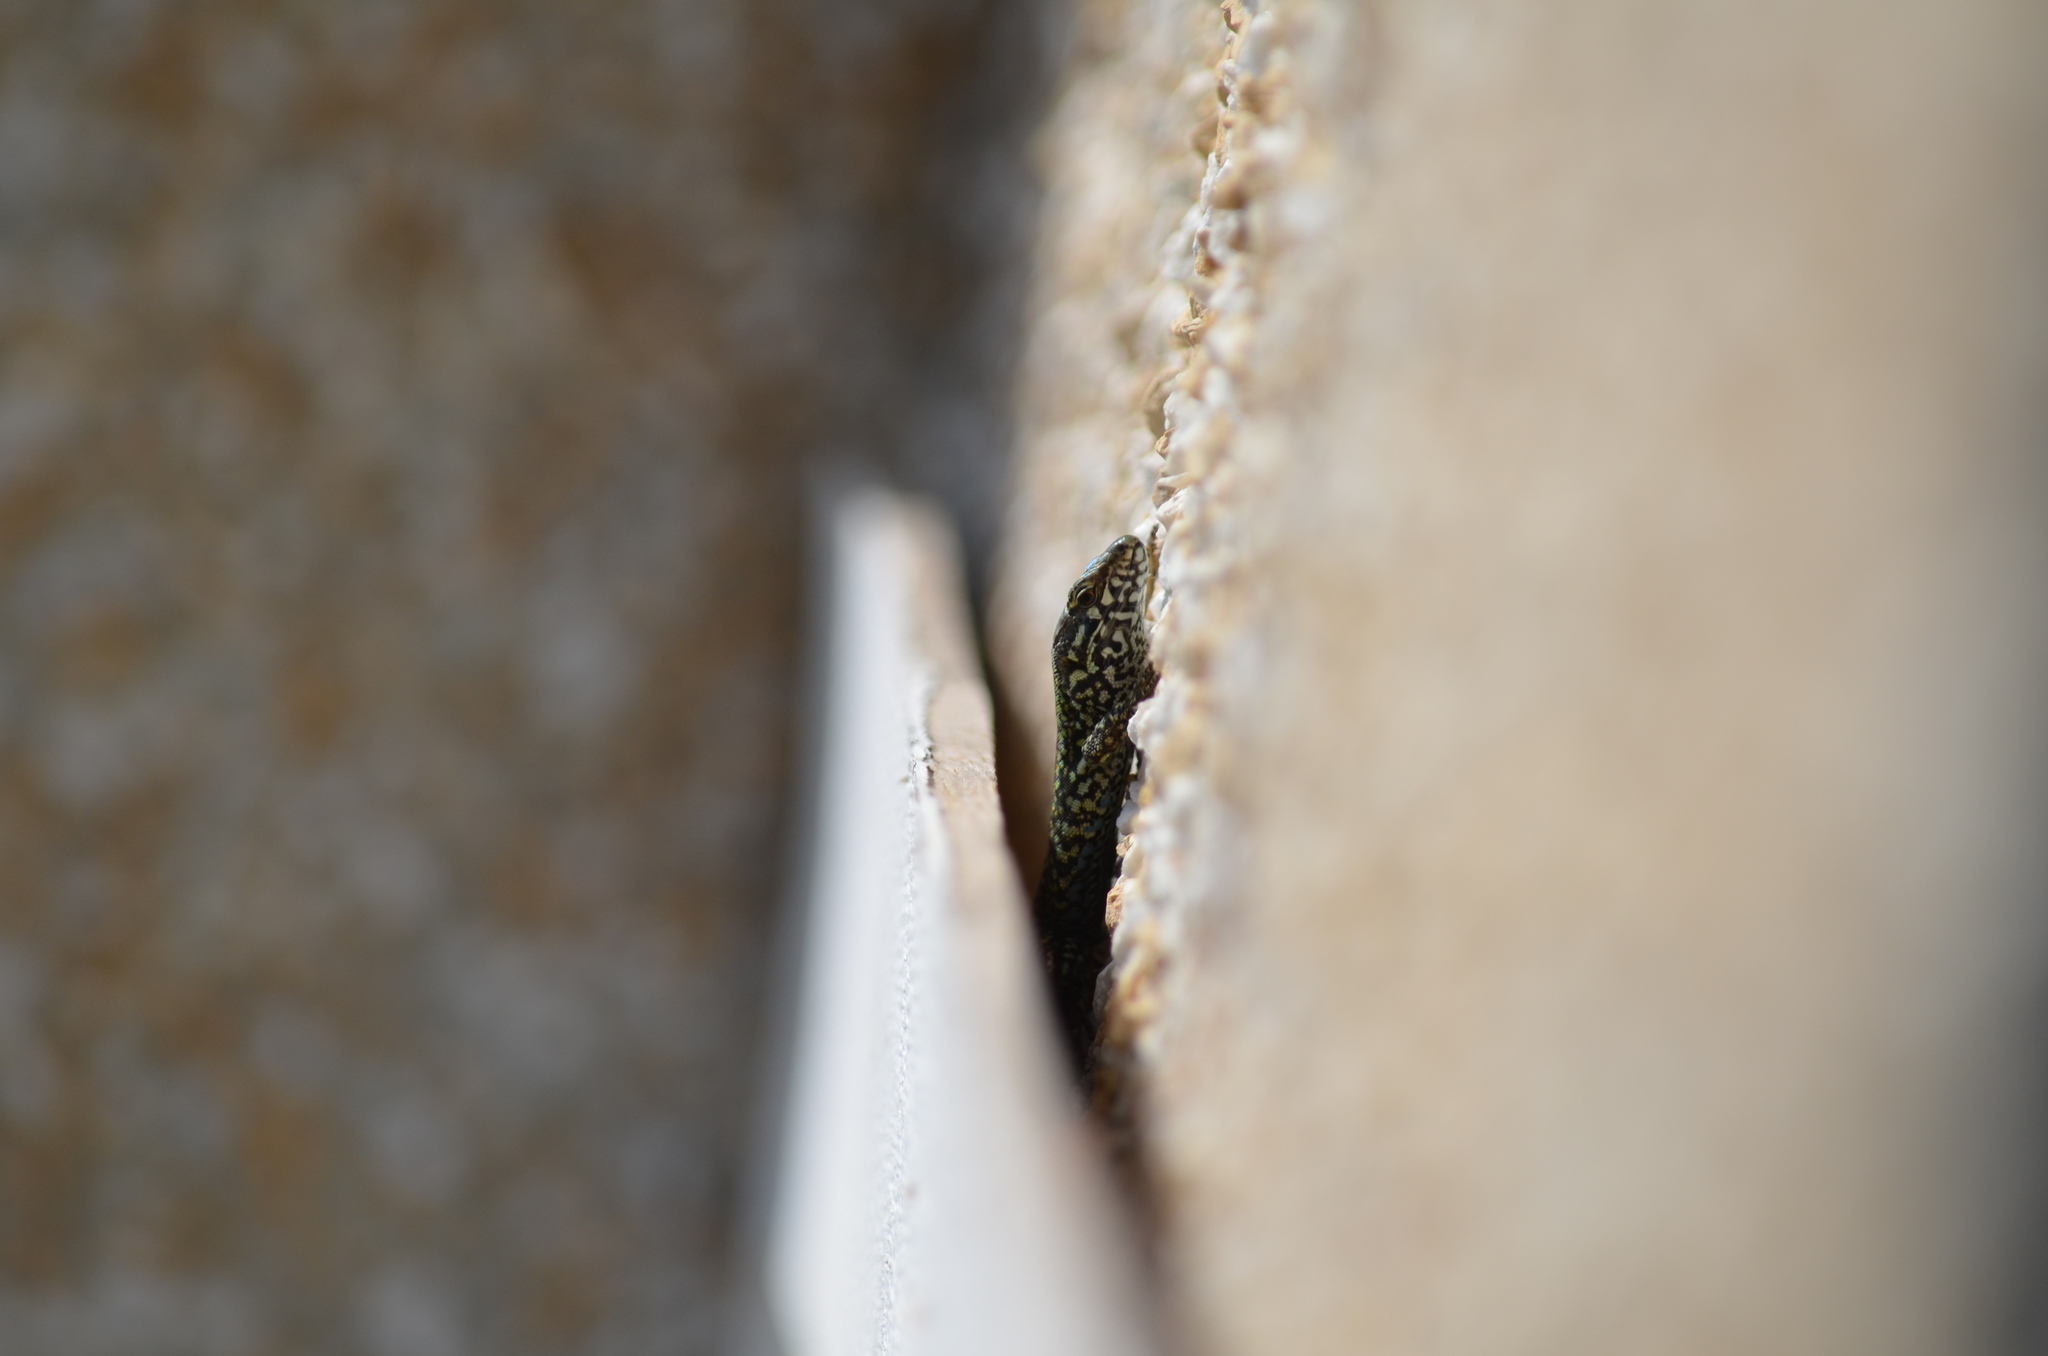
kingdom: Animalia
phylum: Chordata
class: Squamata
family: Lacertidae
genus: Podarcis
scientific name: Podarcis muralis
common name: Common wall lizard
